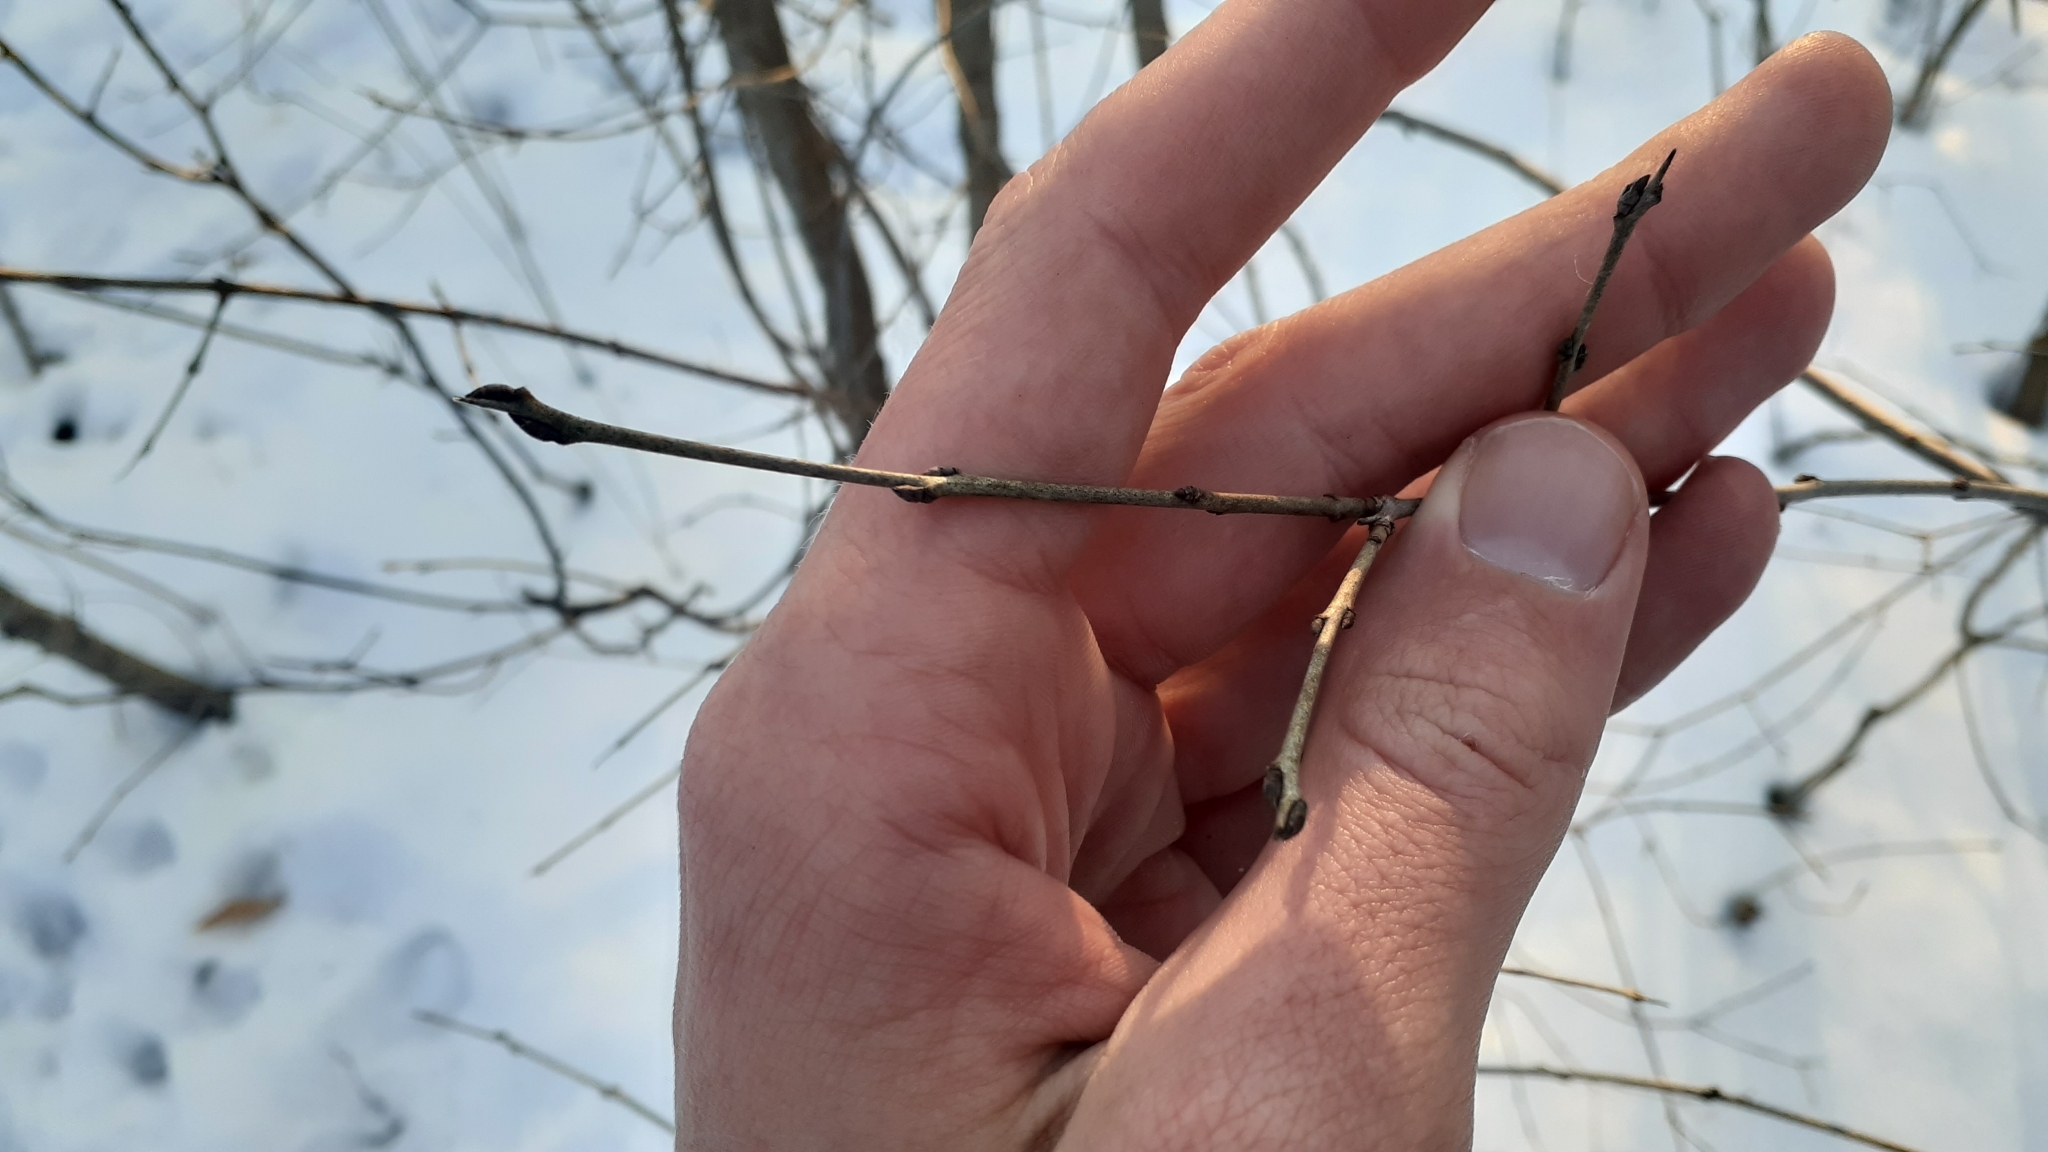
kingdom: Plantae
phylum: Tracheophyta
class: Magnoliopsida
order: Rosales
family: Rhamnaceae
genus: Rhamnus
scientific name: Rhamnus cathartica
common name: Common buckthorn
